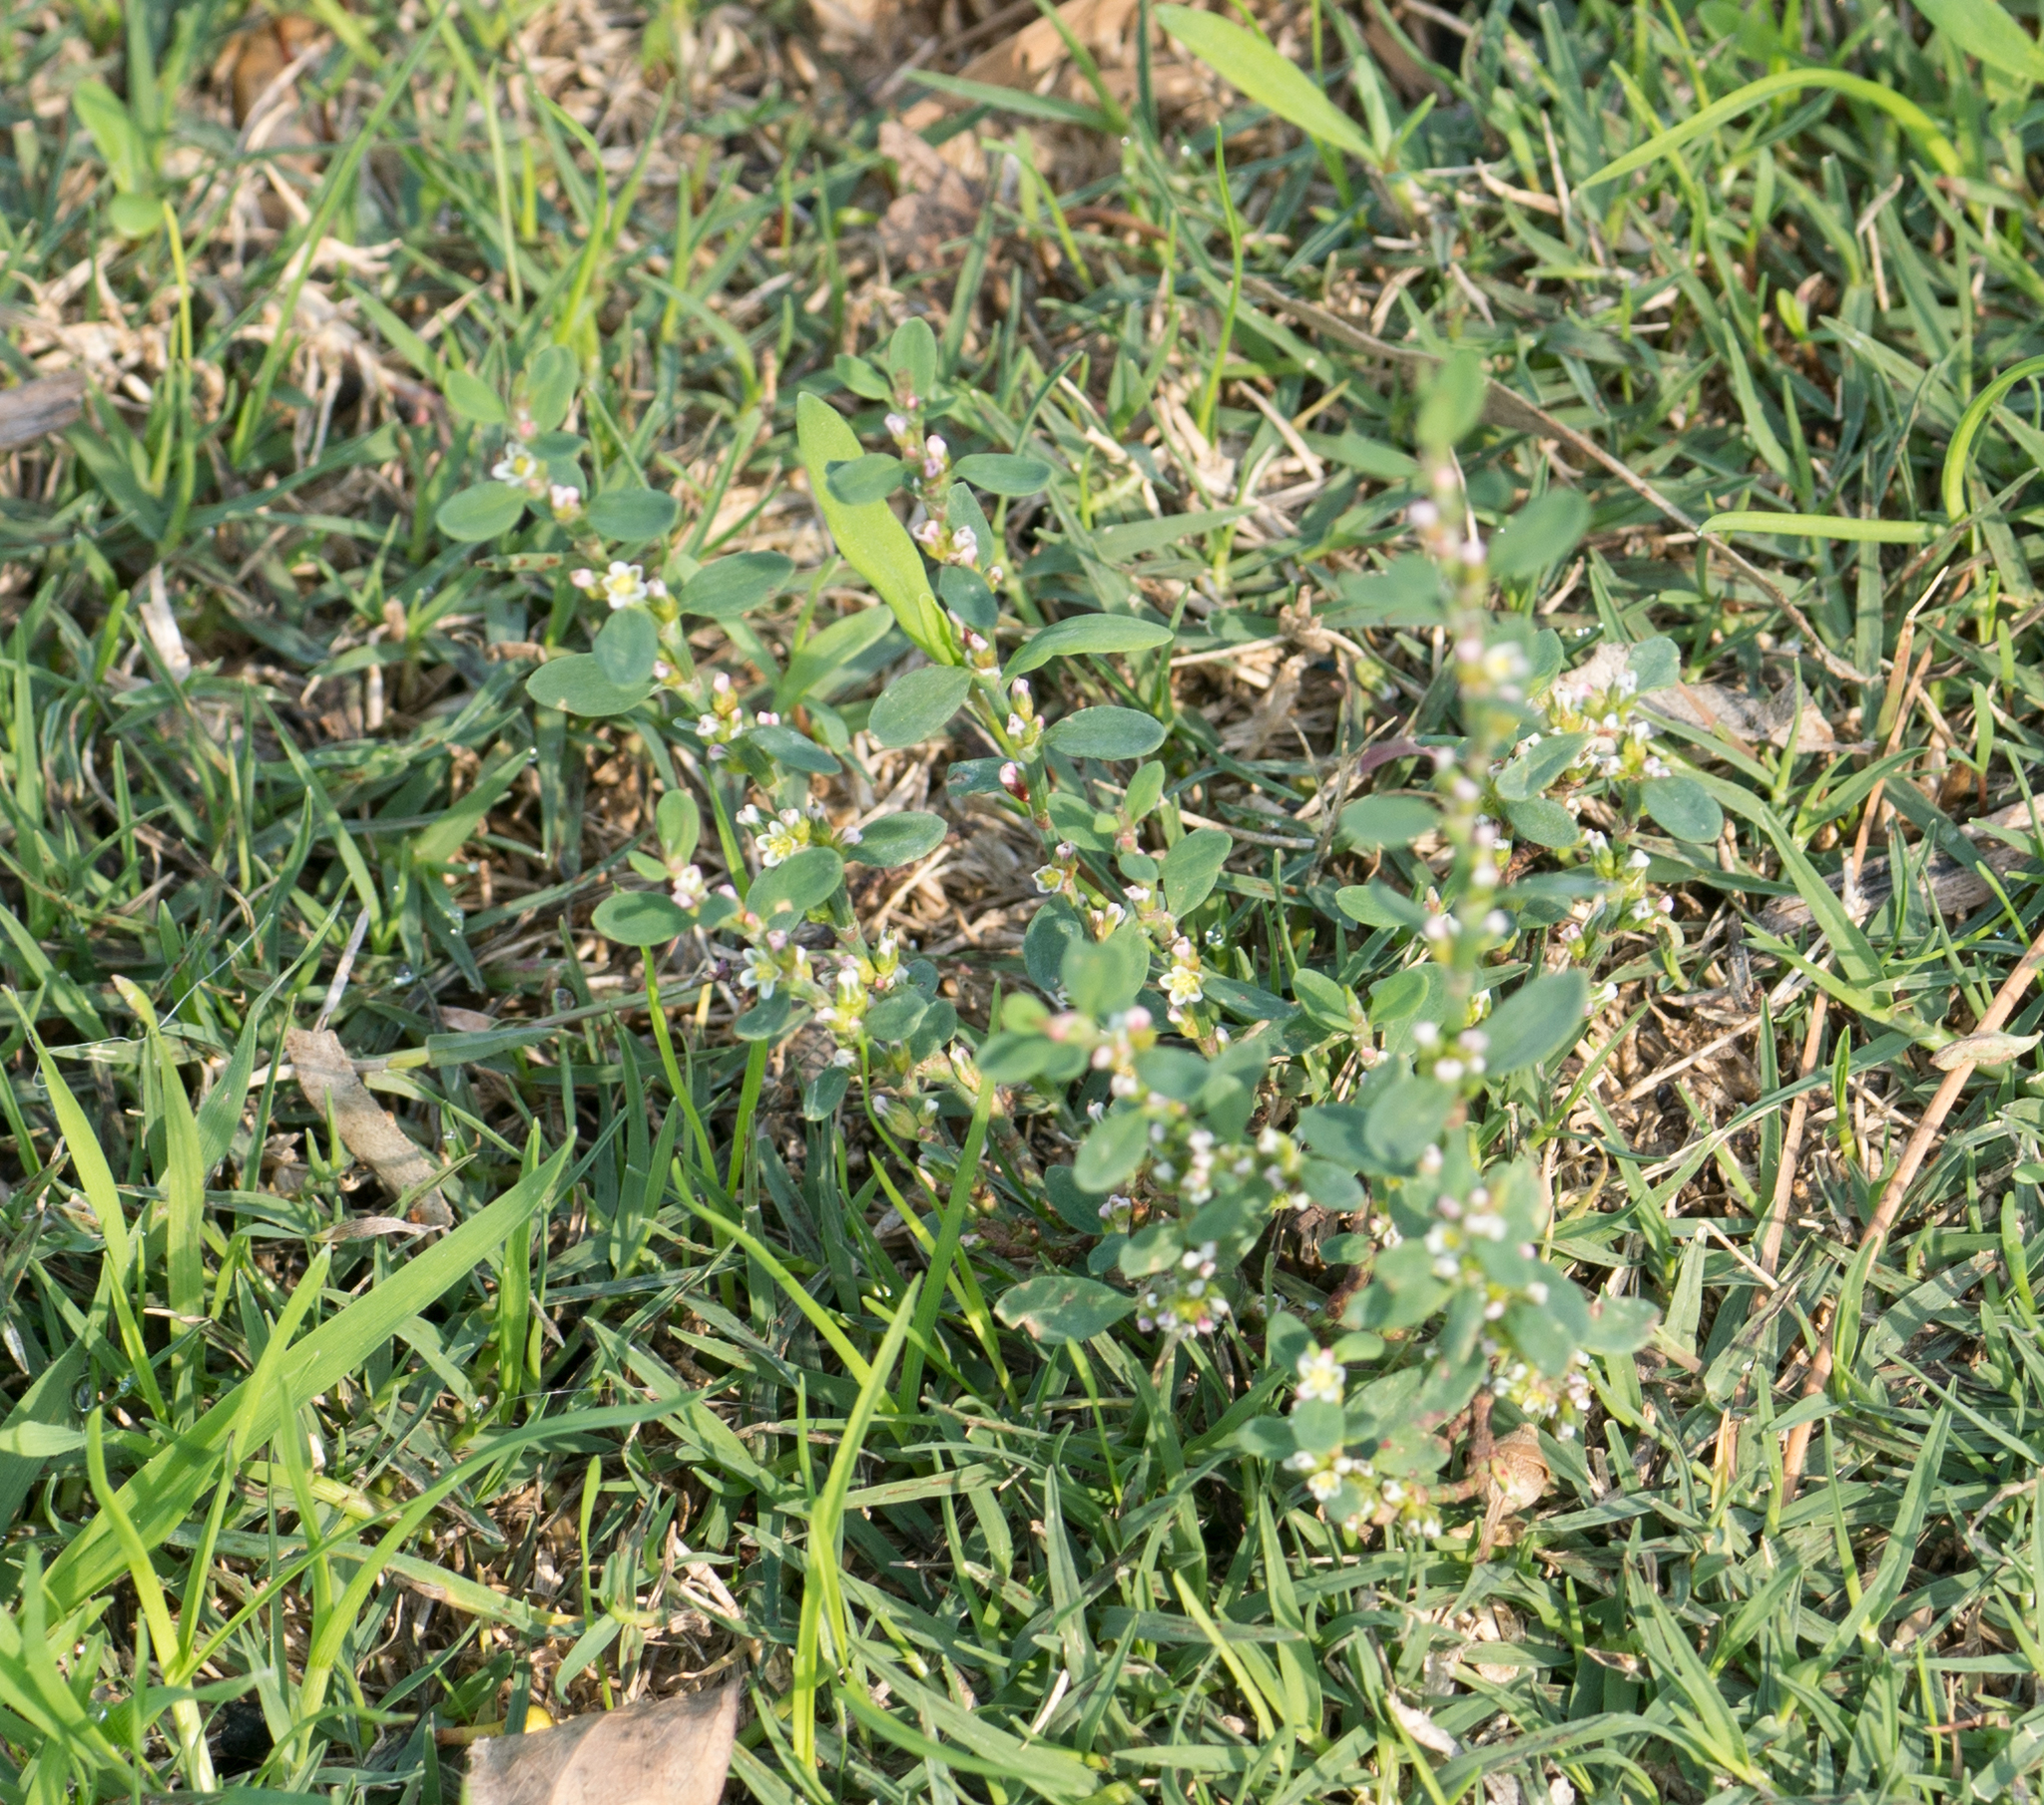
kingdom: Plantae
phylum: Tracheophyta
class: Magnoliopsida
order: Caryophyllales
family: Polygonaceae
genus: Polygonum
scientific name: Polygonum aviculare
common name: Prostrate knotweed
